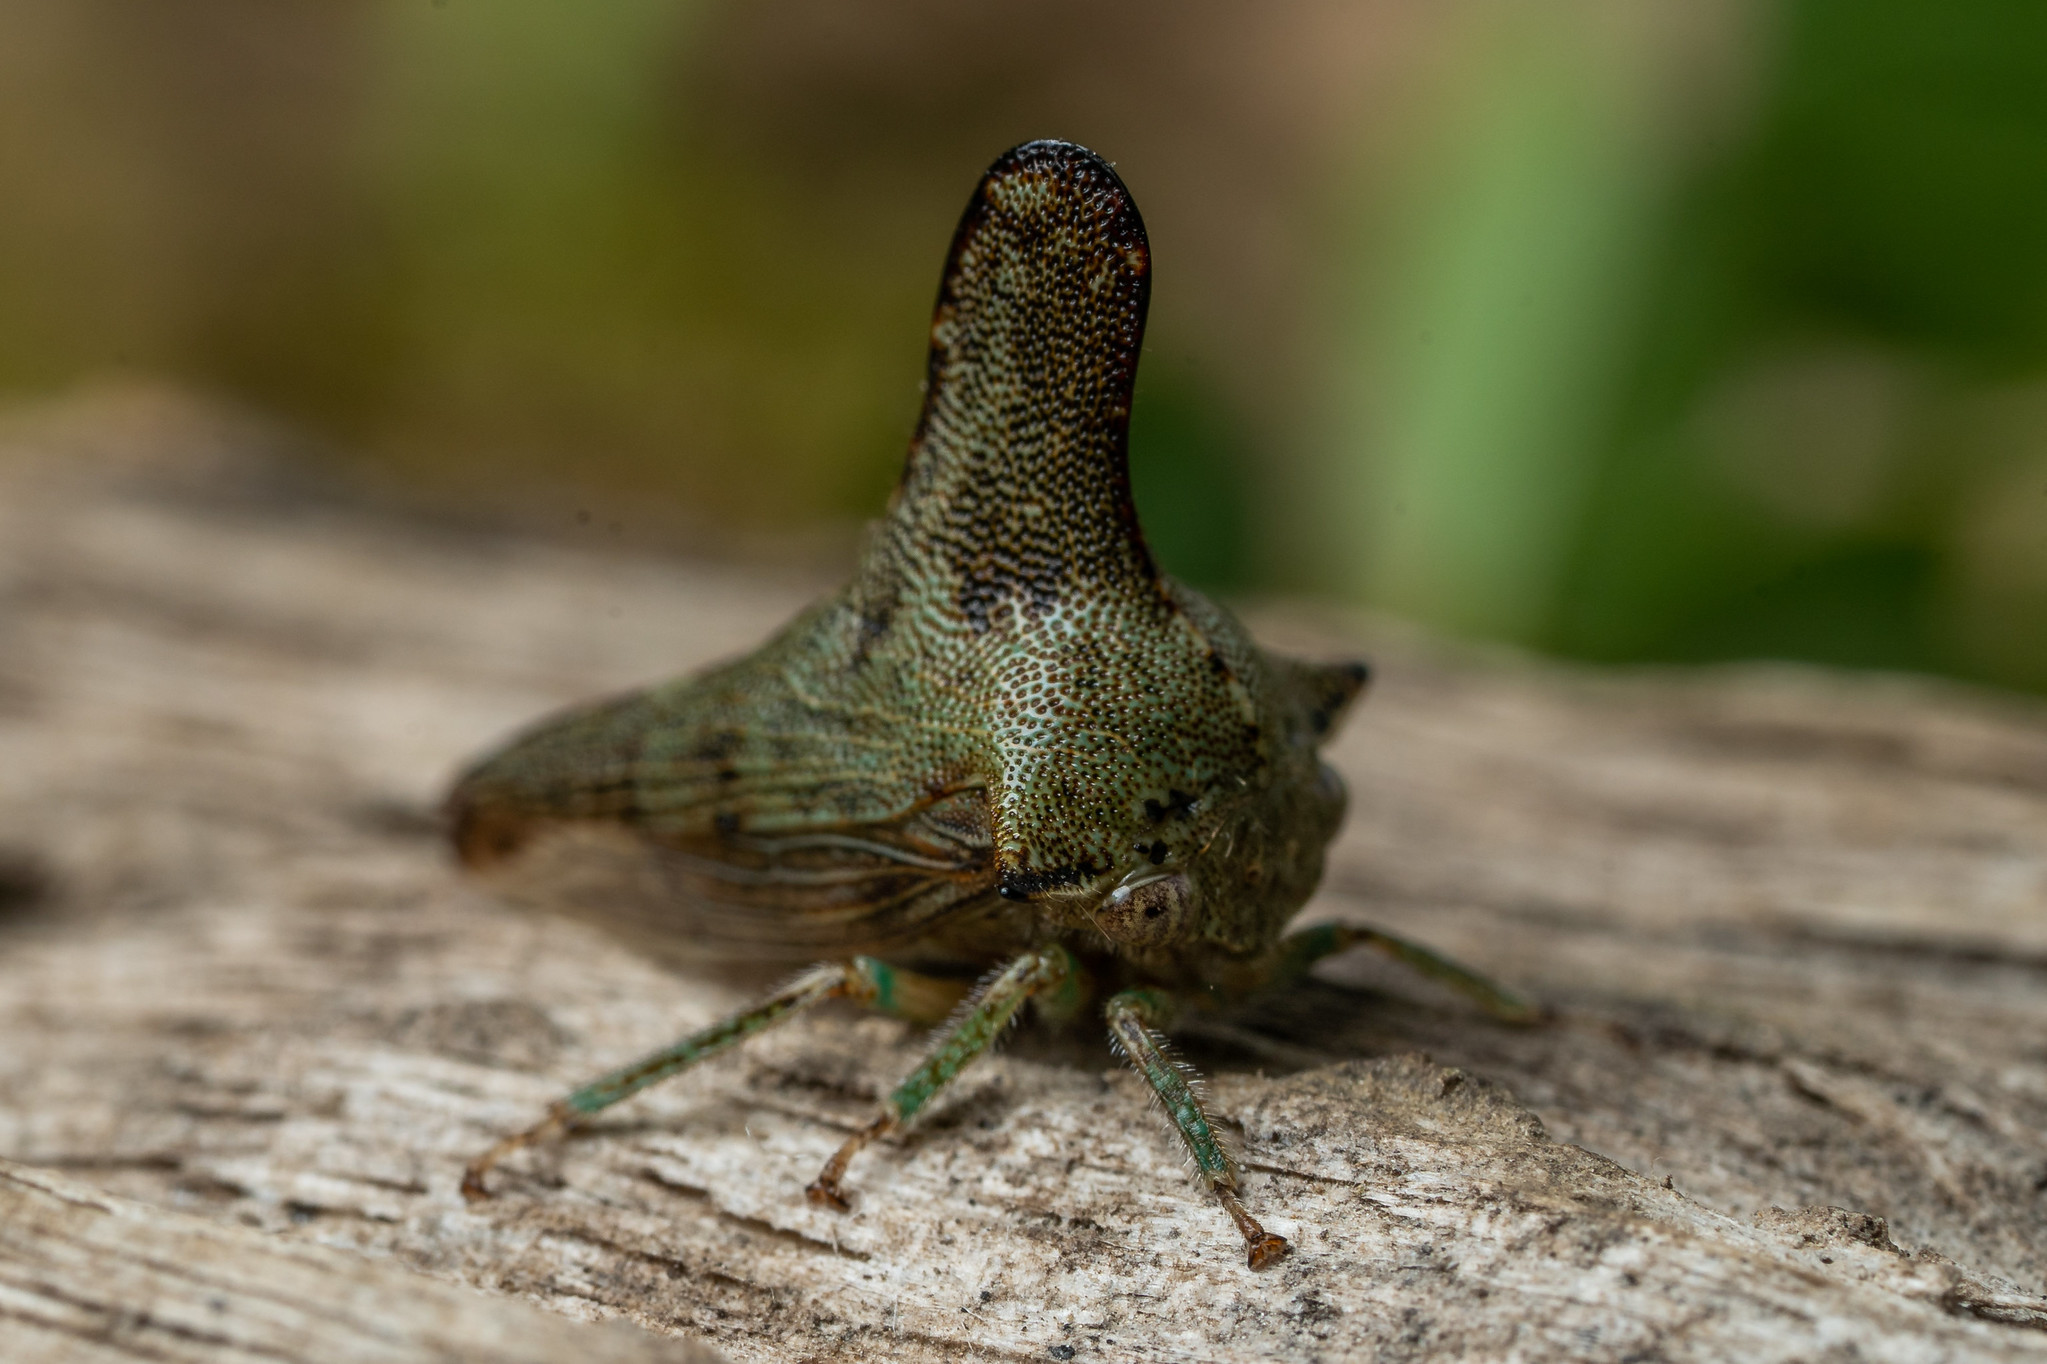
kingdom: Animalia
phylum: Arthropoda
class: Insecta
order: Hemiptera
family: Membracidae
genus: Glossonotus
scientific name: Glossonotus acuminata
